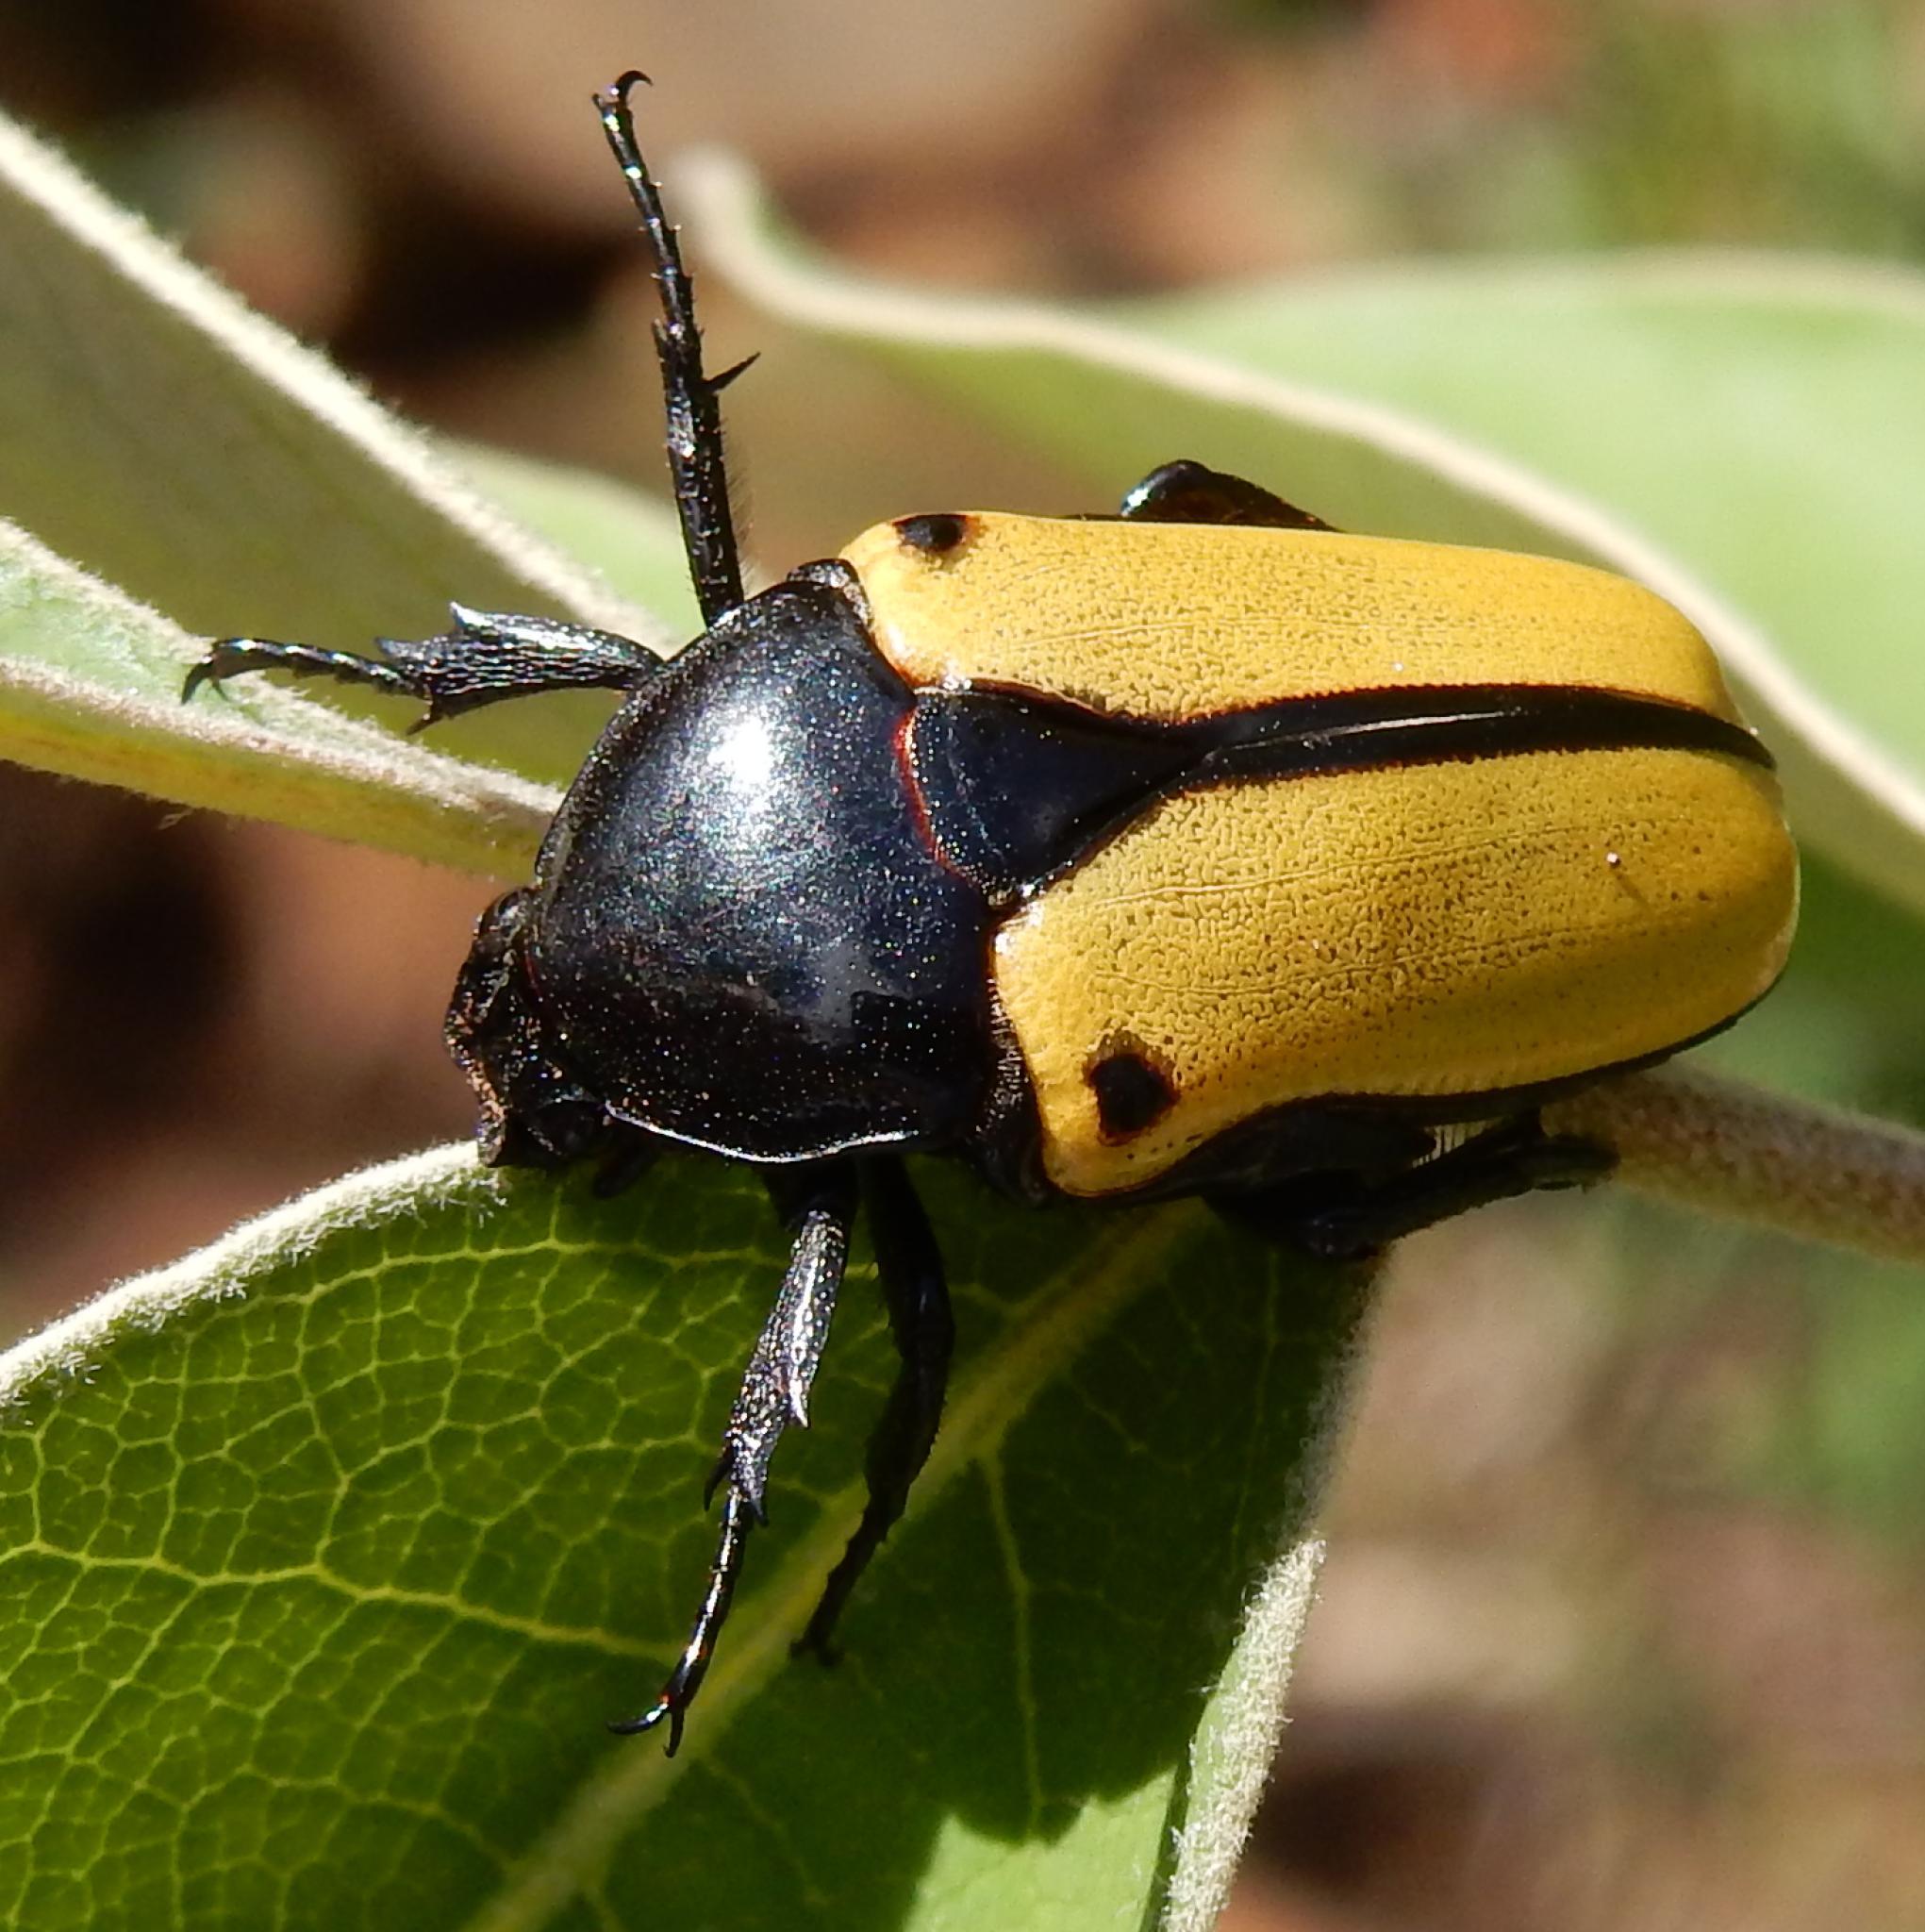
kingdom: Animalia
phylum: Arthropoda
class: Insecta
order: Coleoptera
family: Scarabaeidae
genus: Anisorrhina
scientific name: Anisorrhina algoensis
